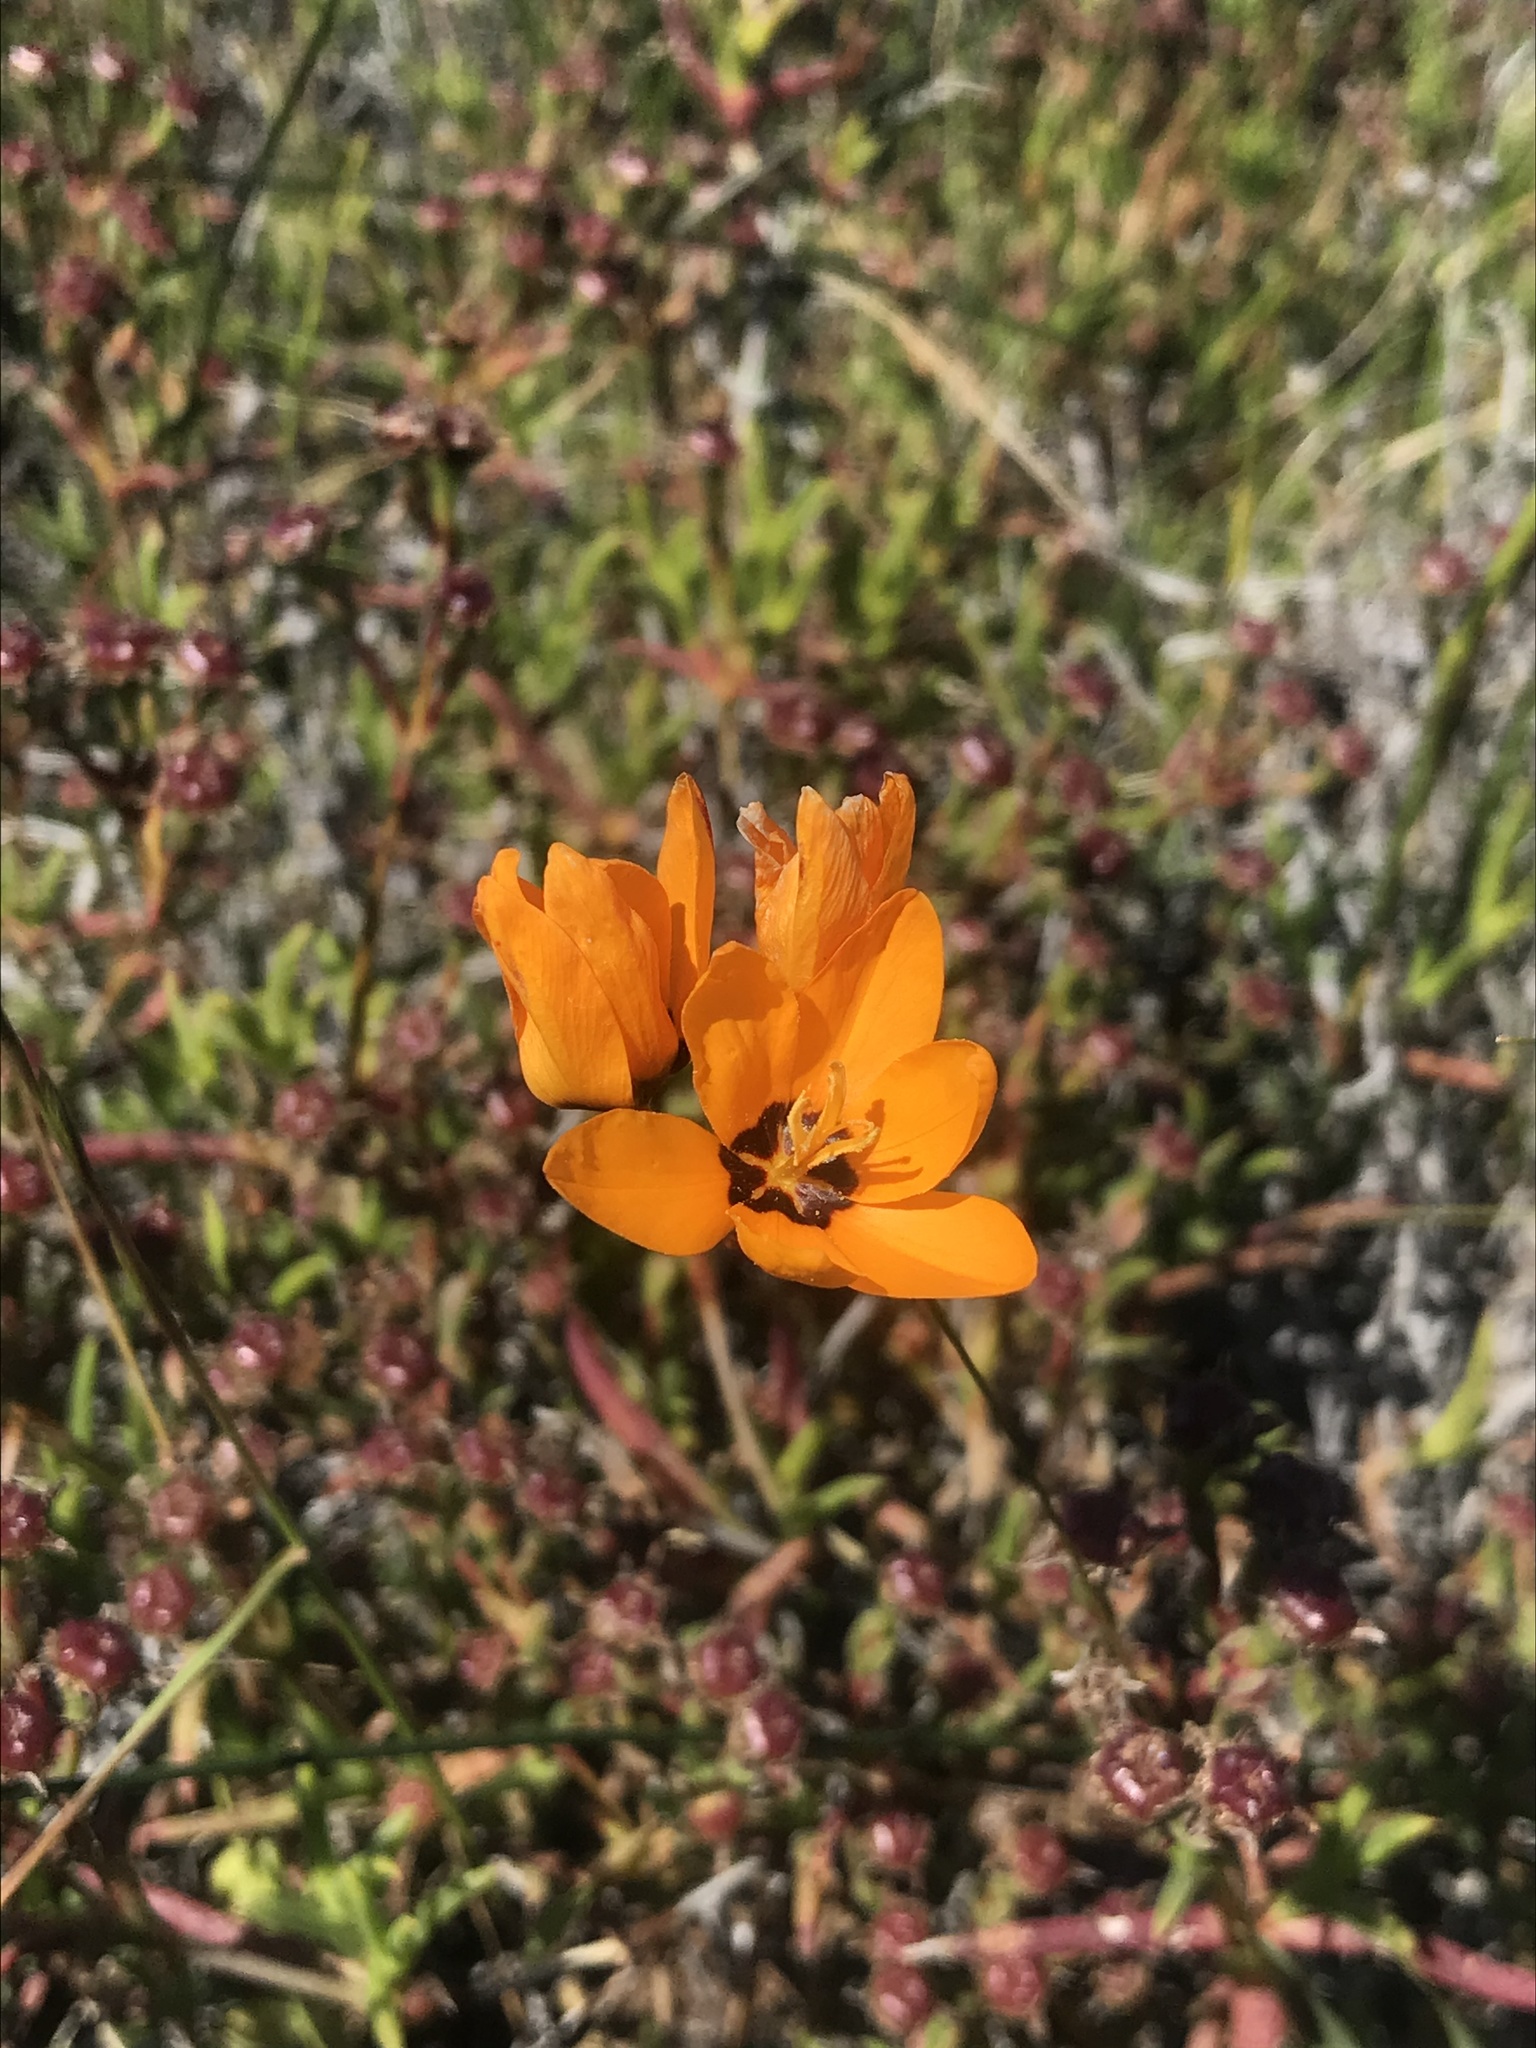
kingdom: Plantae
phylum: Tracheophyta
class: Liliopsida
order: Asparagales
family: Iridaceae
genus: Ixia
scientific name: Ixia maculata
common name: Spotted african cornlily
